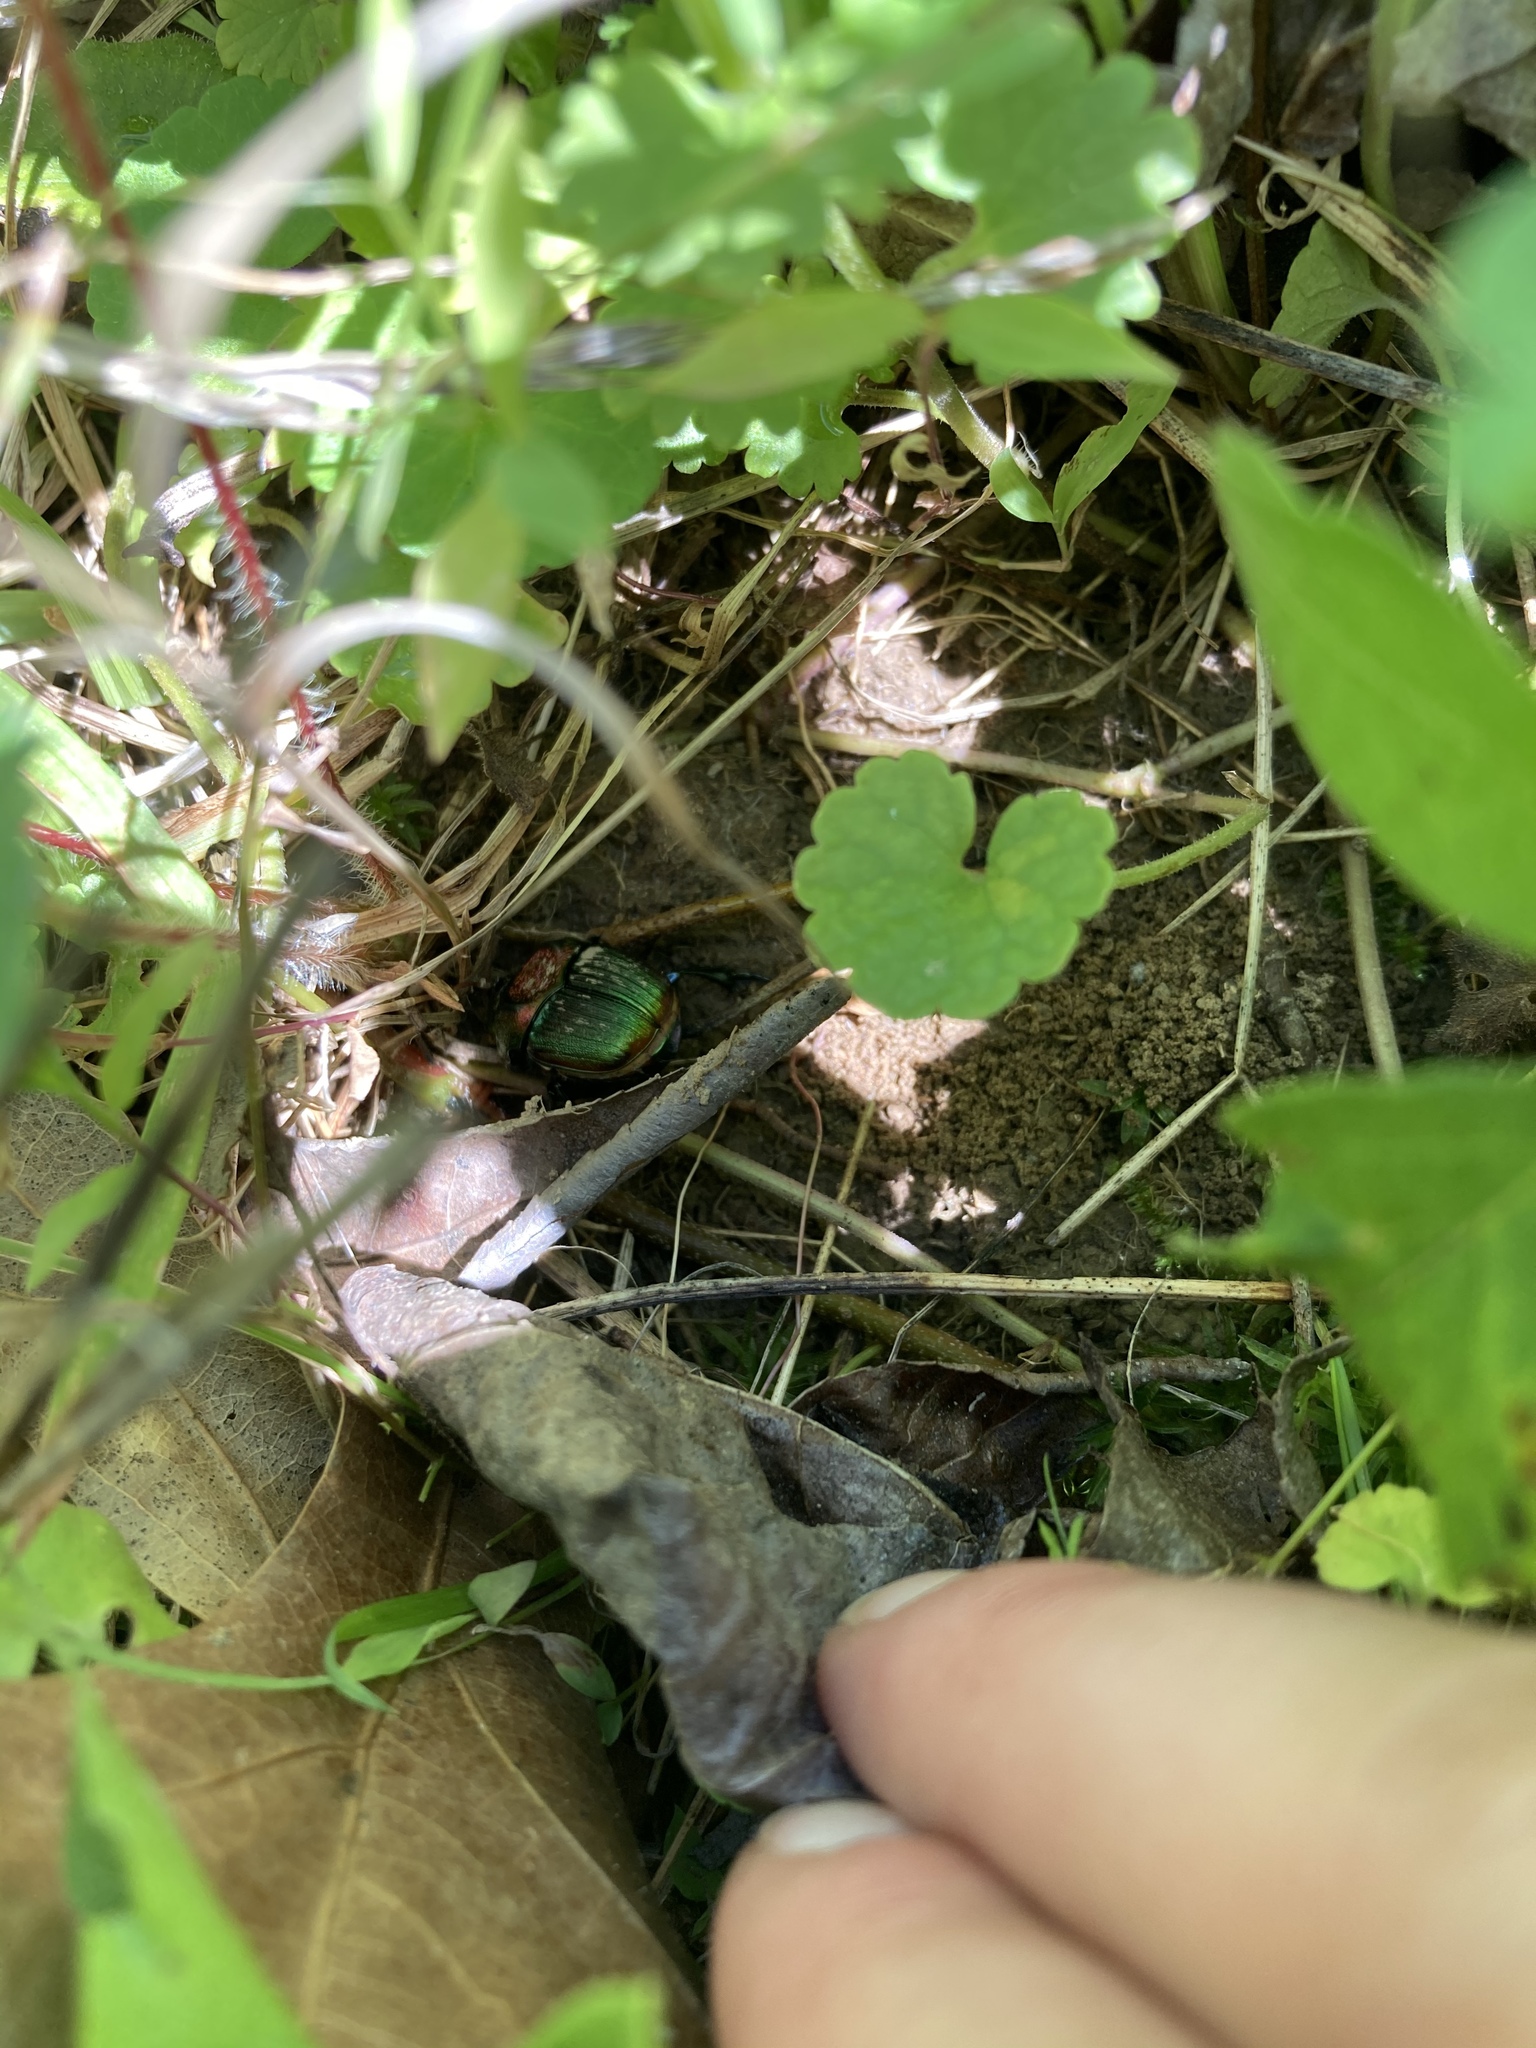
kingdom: Animalia
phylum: Arthropoda
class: Insecta
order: Coleoptera
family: Scarabaeidae
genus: Phanaeus
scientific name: Phanaeus vindex
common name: Rainbow scarab
